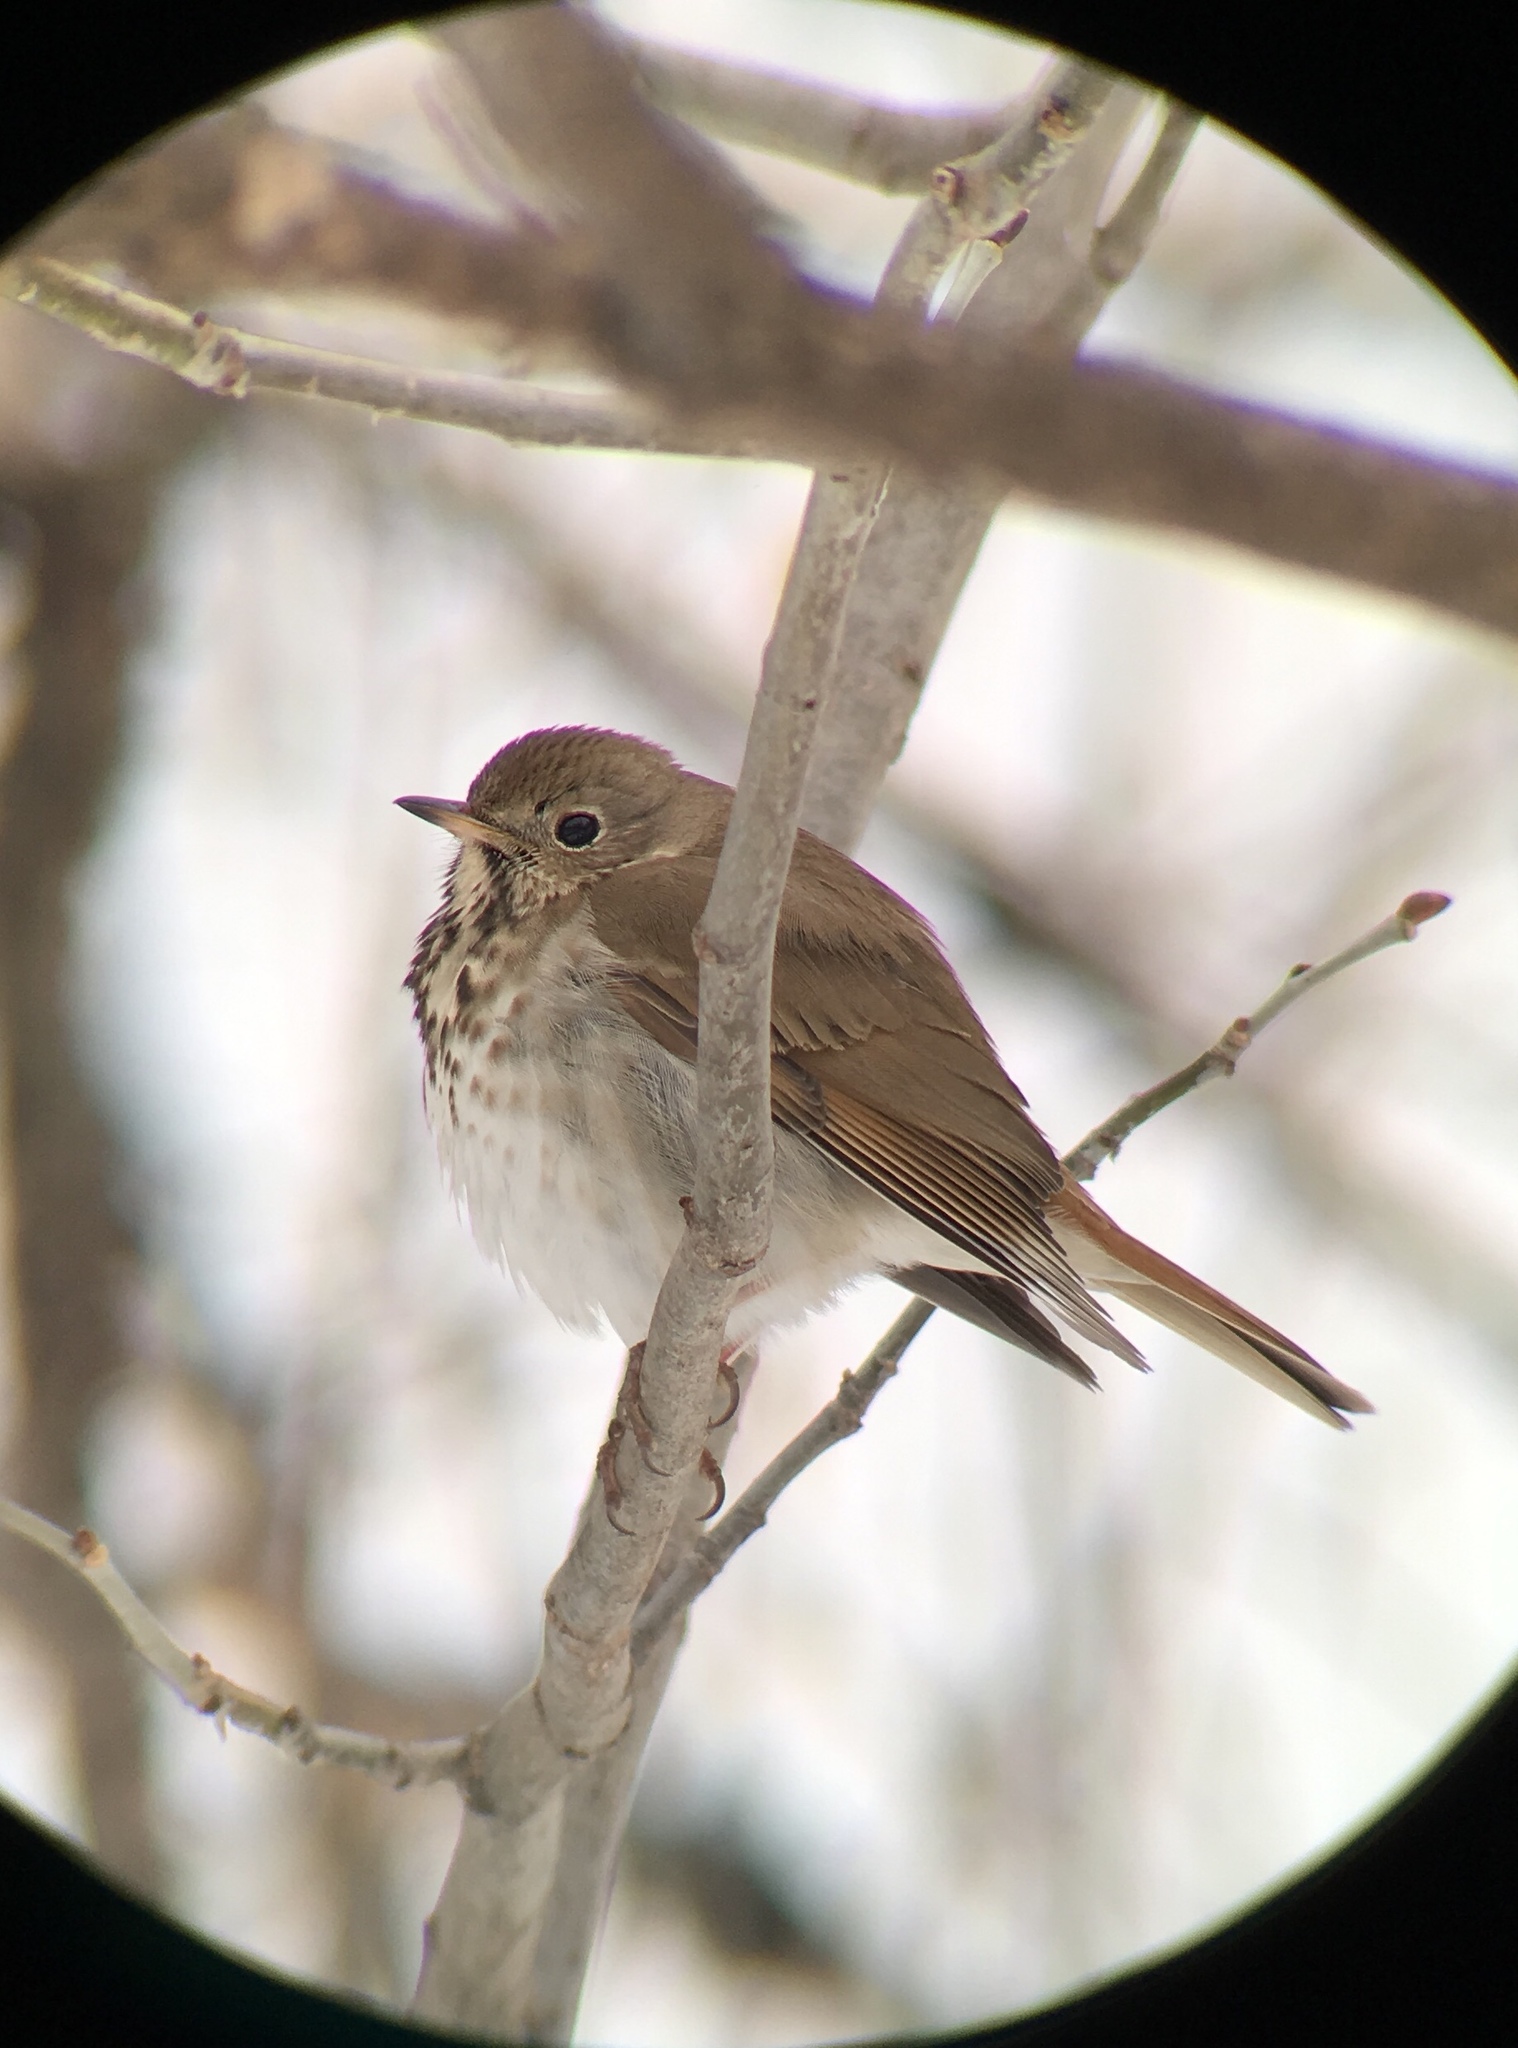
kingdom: Animalia
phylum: Chordata
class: Aves
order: Passeriformes
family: Turdidae
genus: Catharus
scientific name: Catharus guttatus
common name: Hermit thrush
